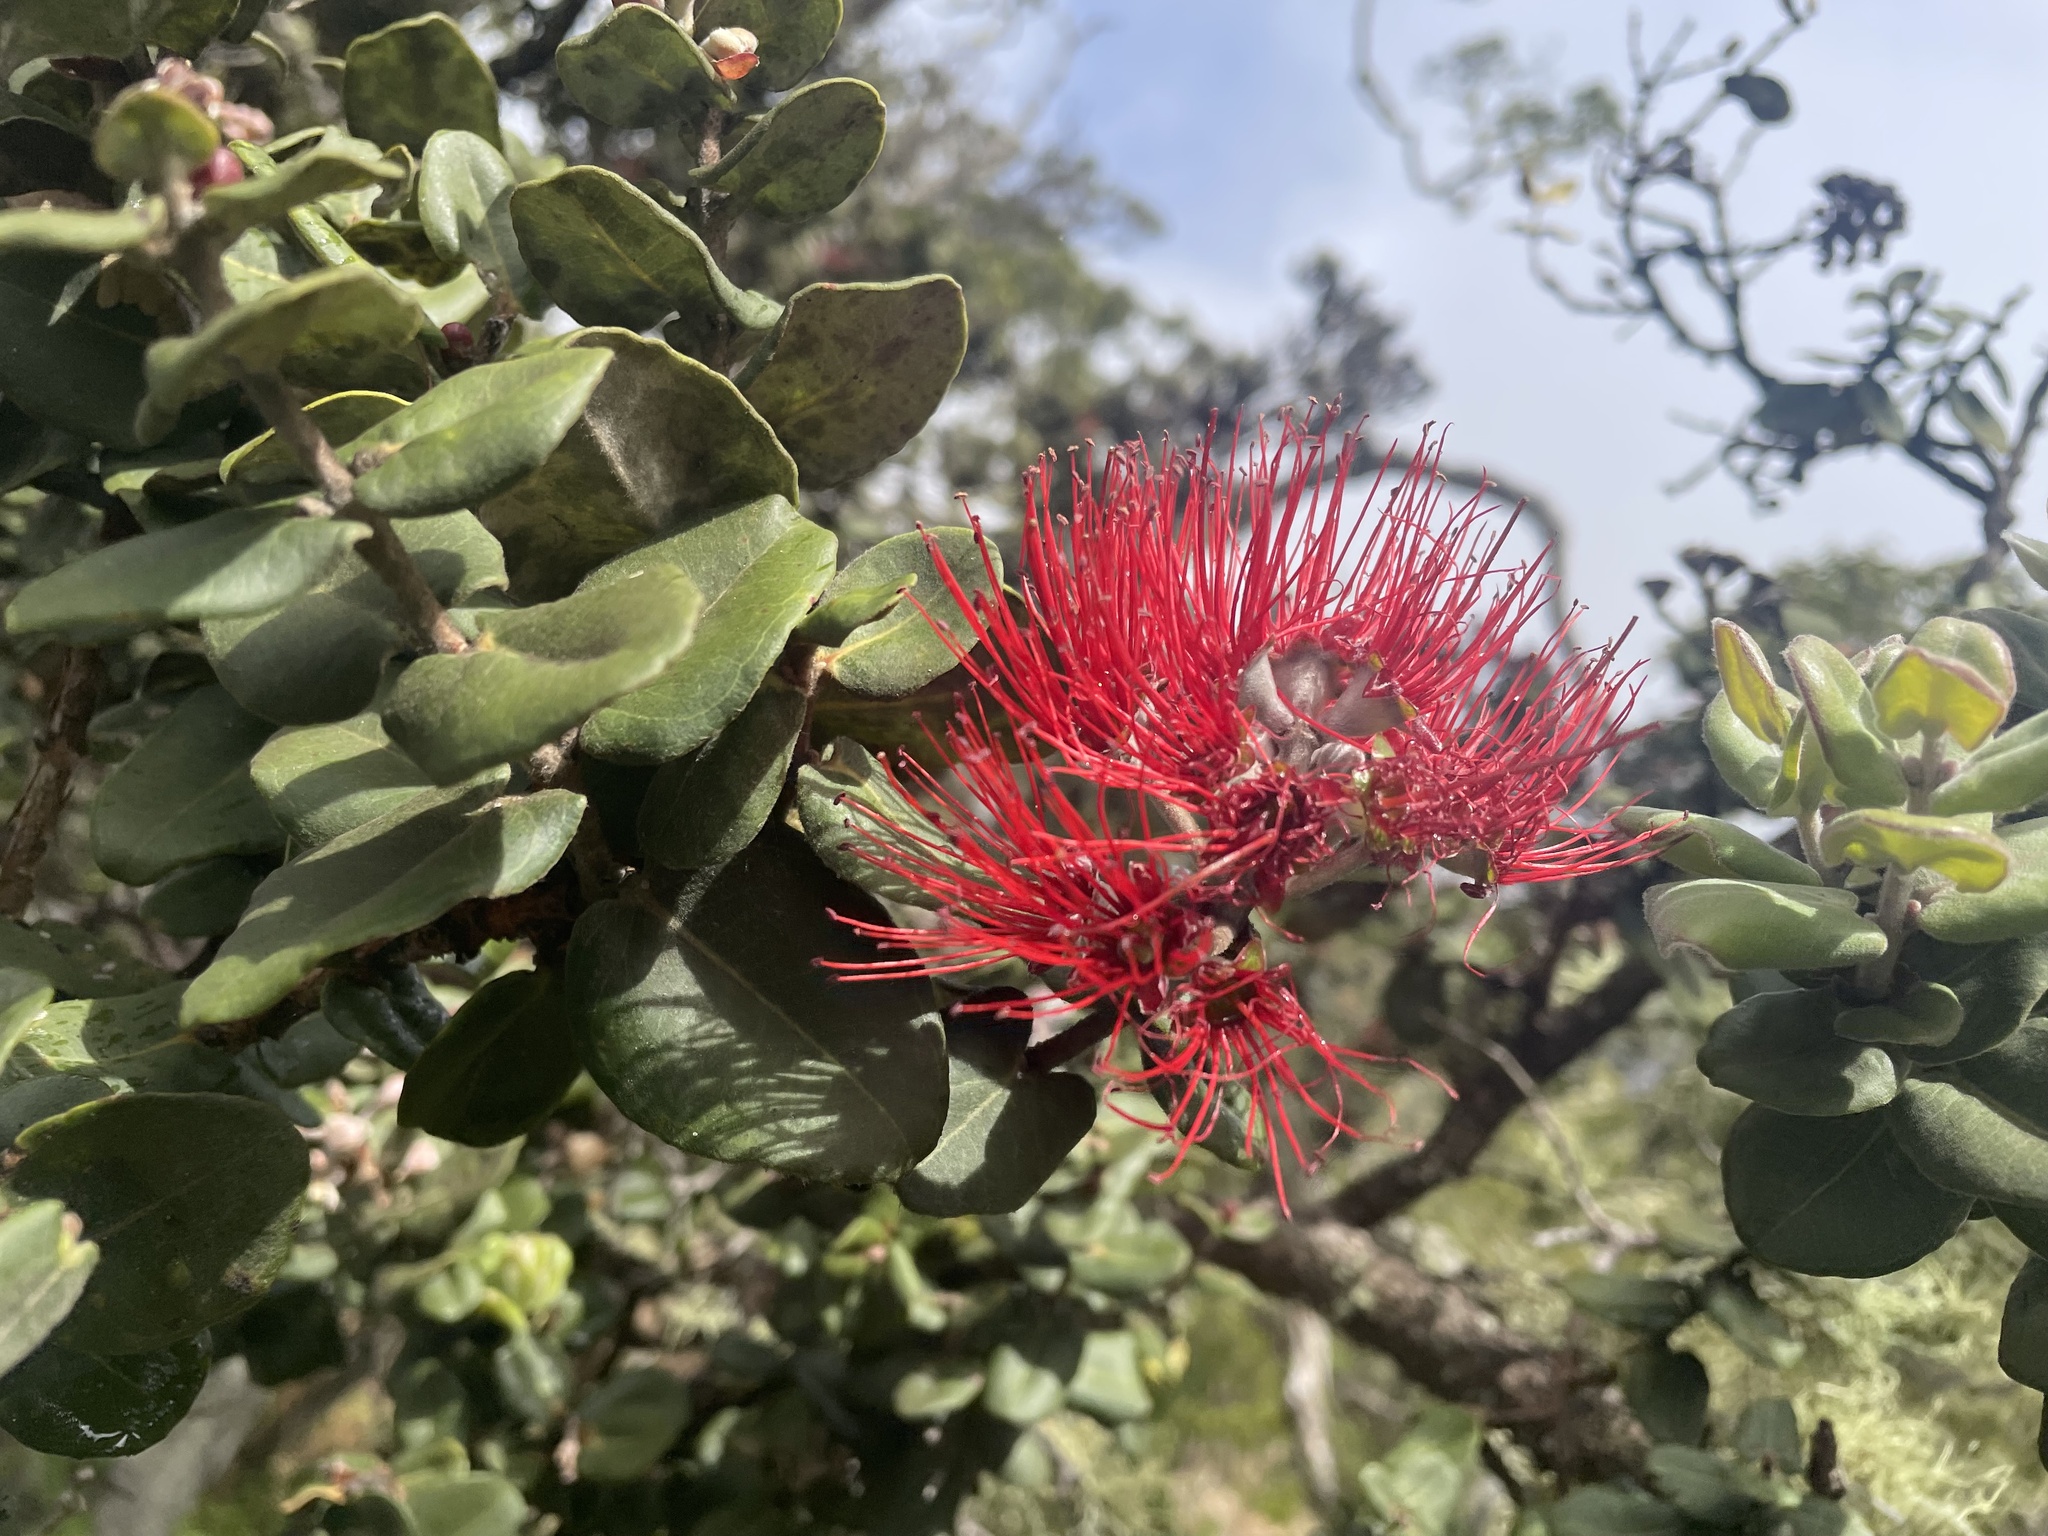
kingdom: Plantae
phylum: Tracheophyta
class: Magnoliopsida
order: Myrtales
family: Myrtaceae
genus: Metrosideros
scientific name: Metrosideros polymorpha
